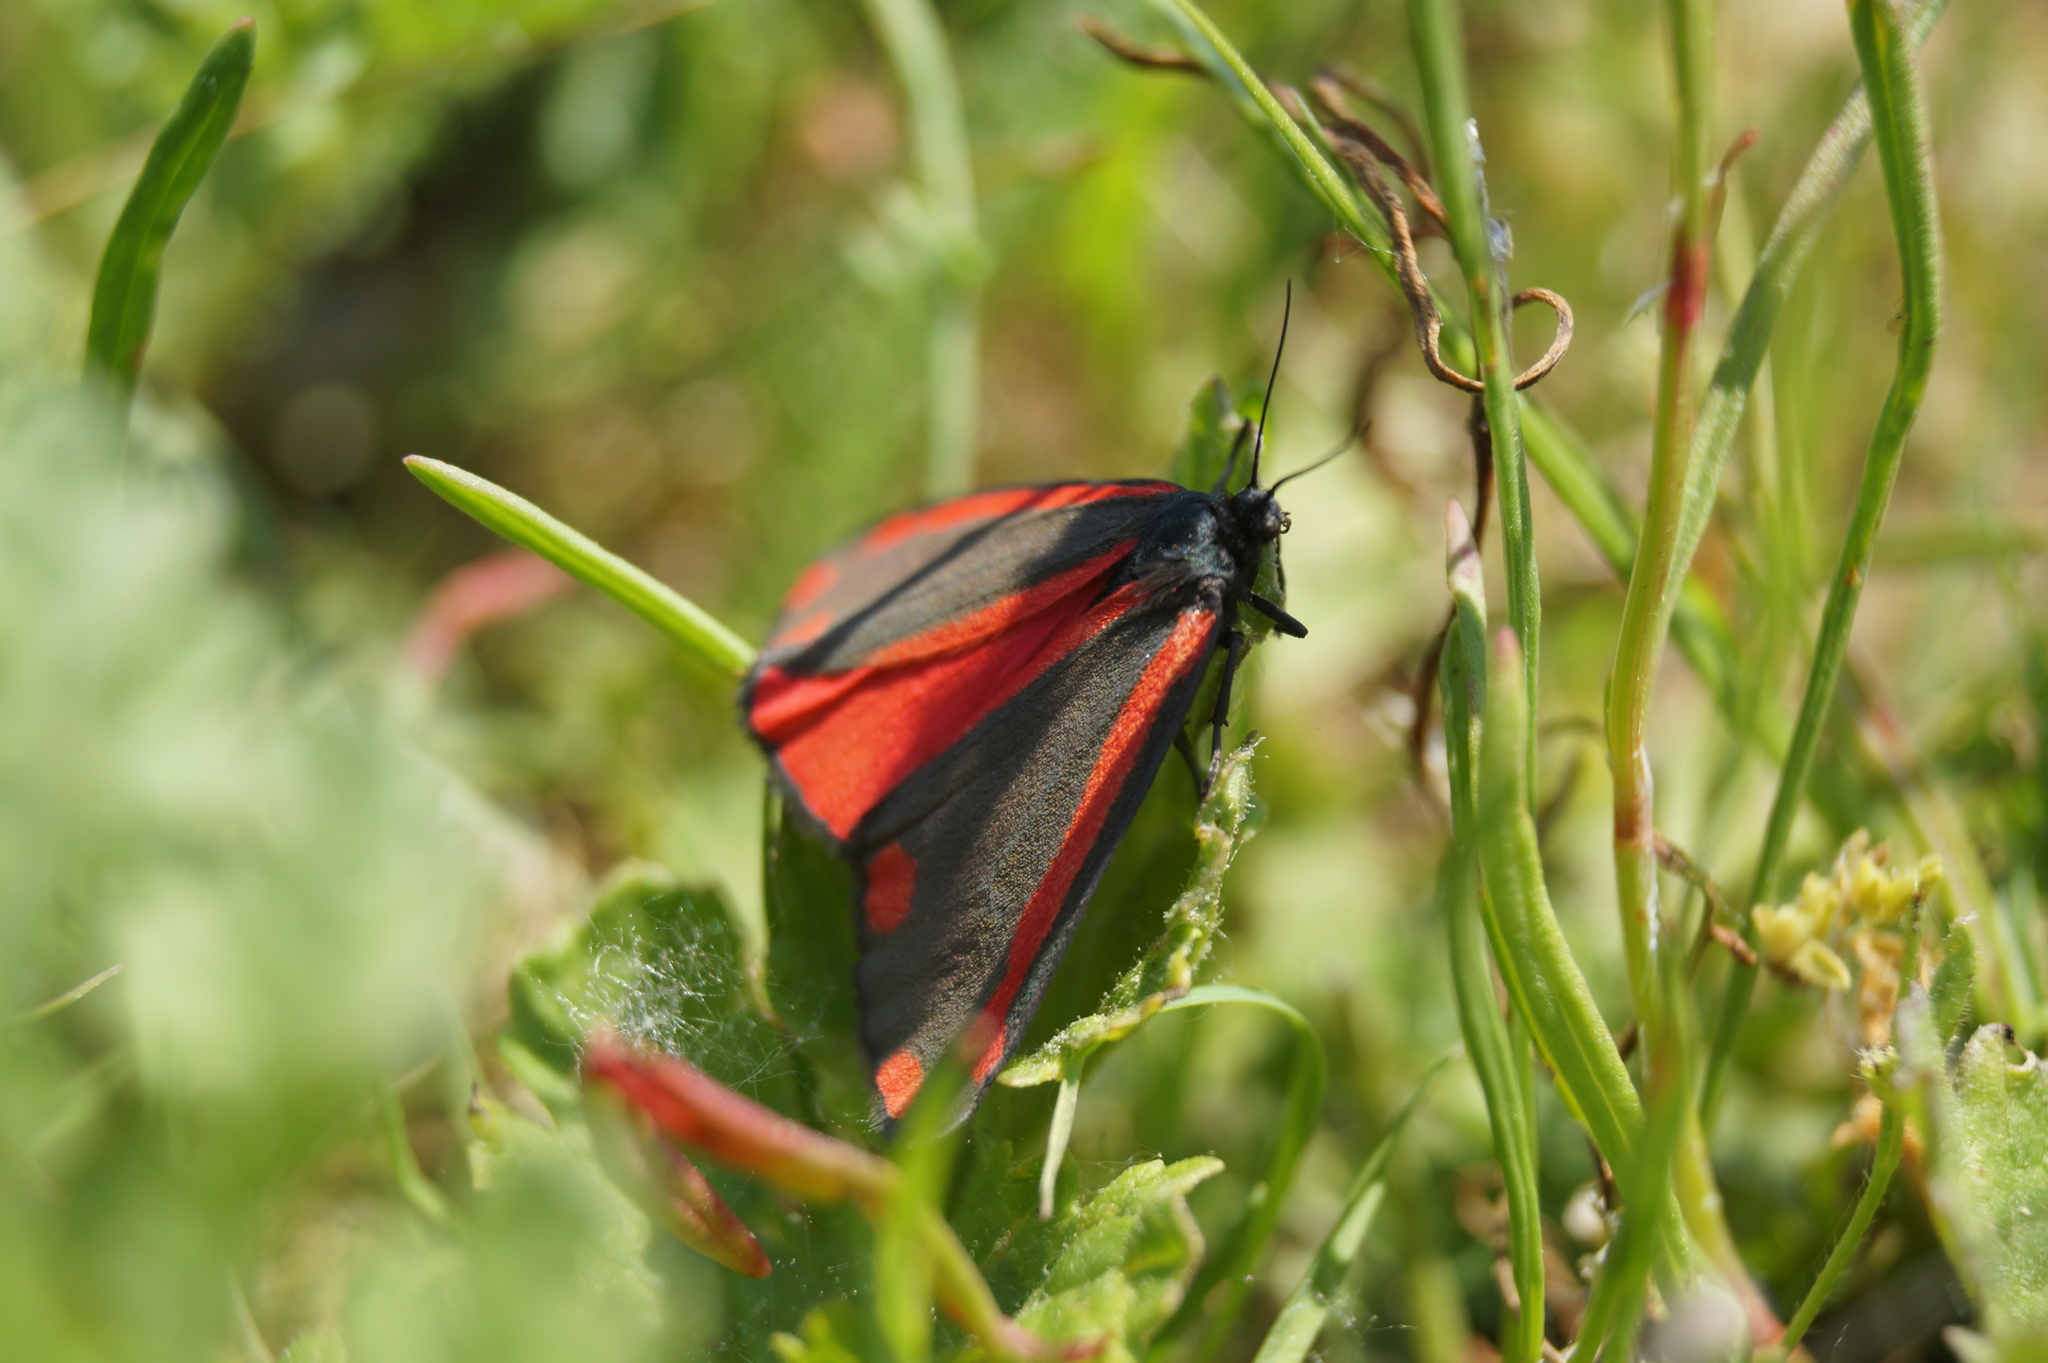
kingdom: Animalia
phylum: Arthropoda
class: Insecta
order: Lepidoptera
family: Erebidae
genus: Tyria
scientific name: Tyria jacobaeae
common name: Cinnabar
